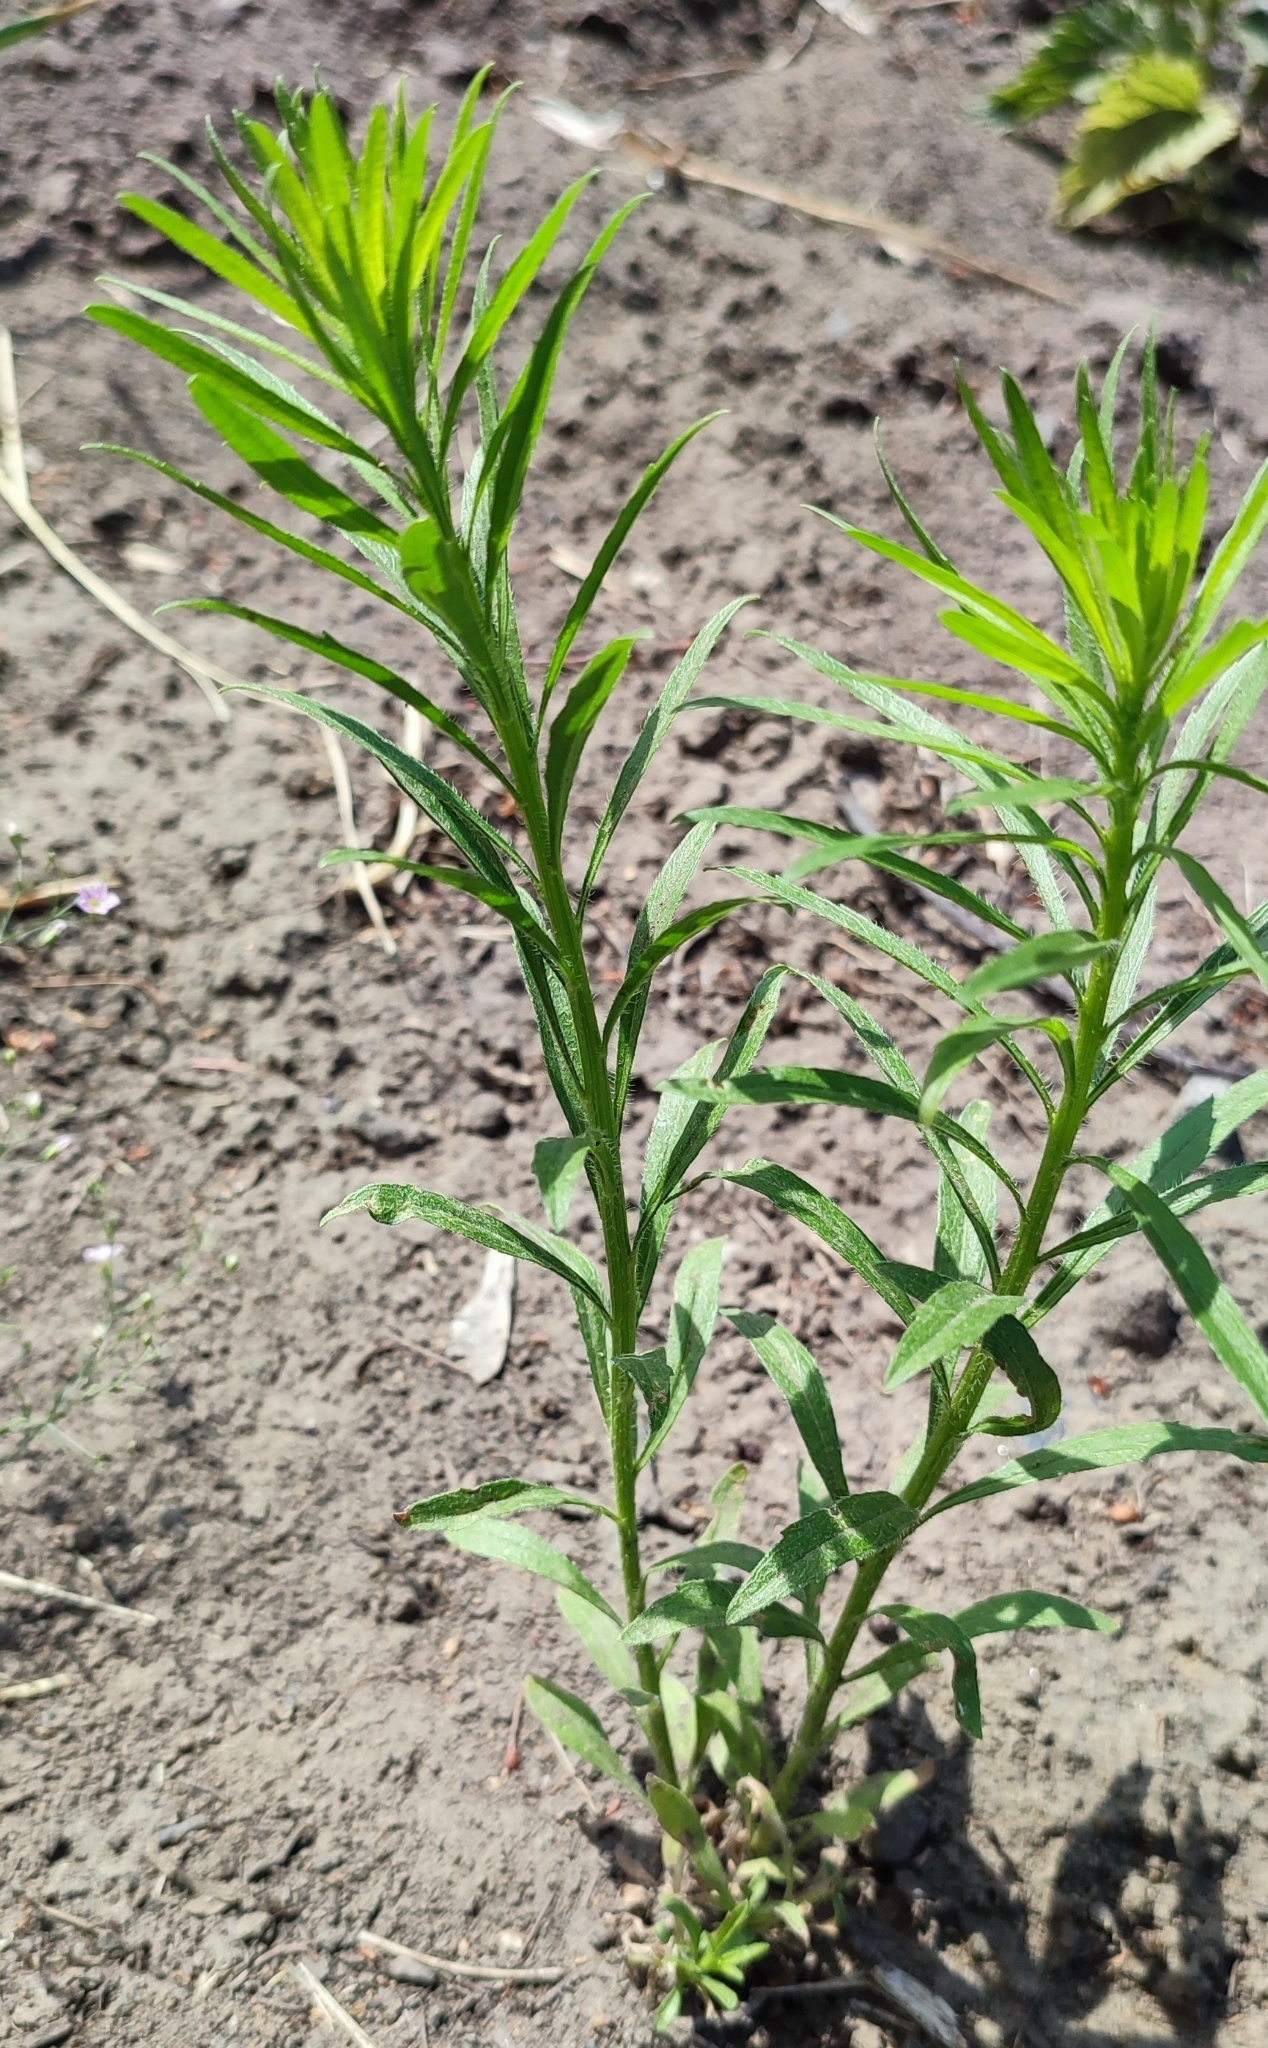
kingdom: Plantae
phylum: Tracheophyta
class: Magnoliopsida
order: Asterales
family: Asteraceae
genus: Erigeron
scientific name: Erigeron canadensis
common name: Canadian fleabane
